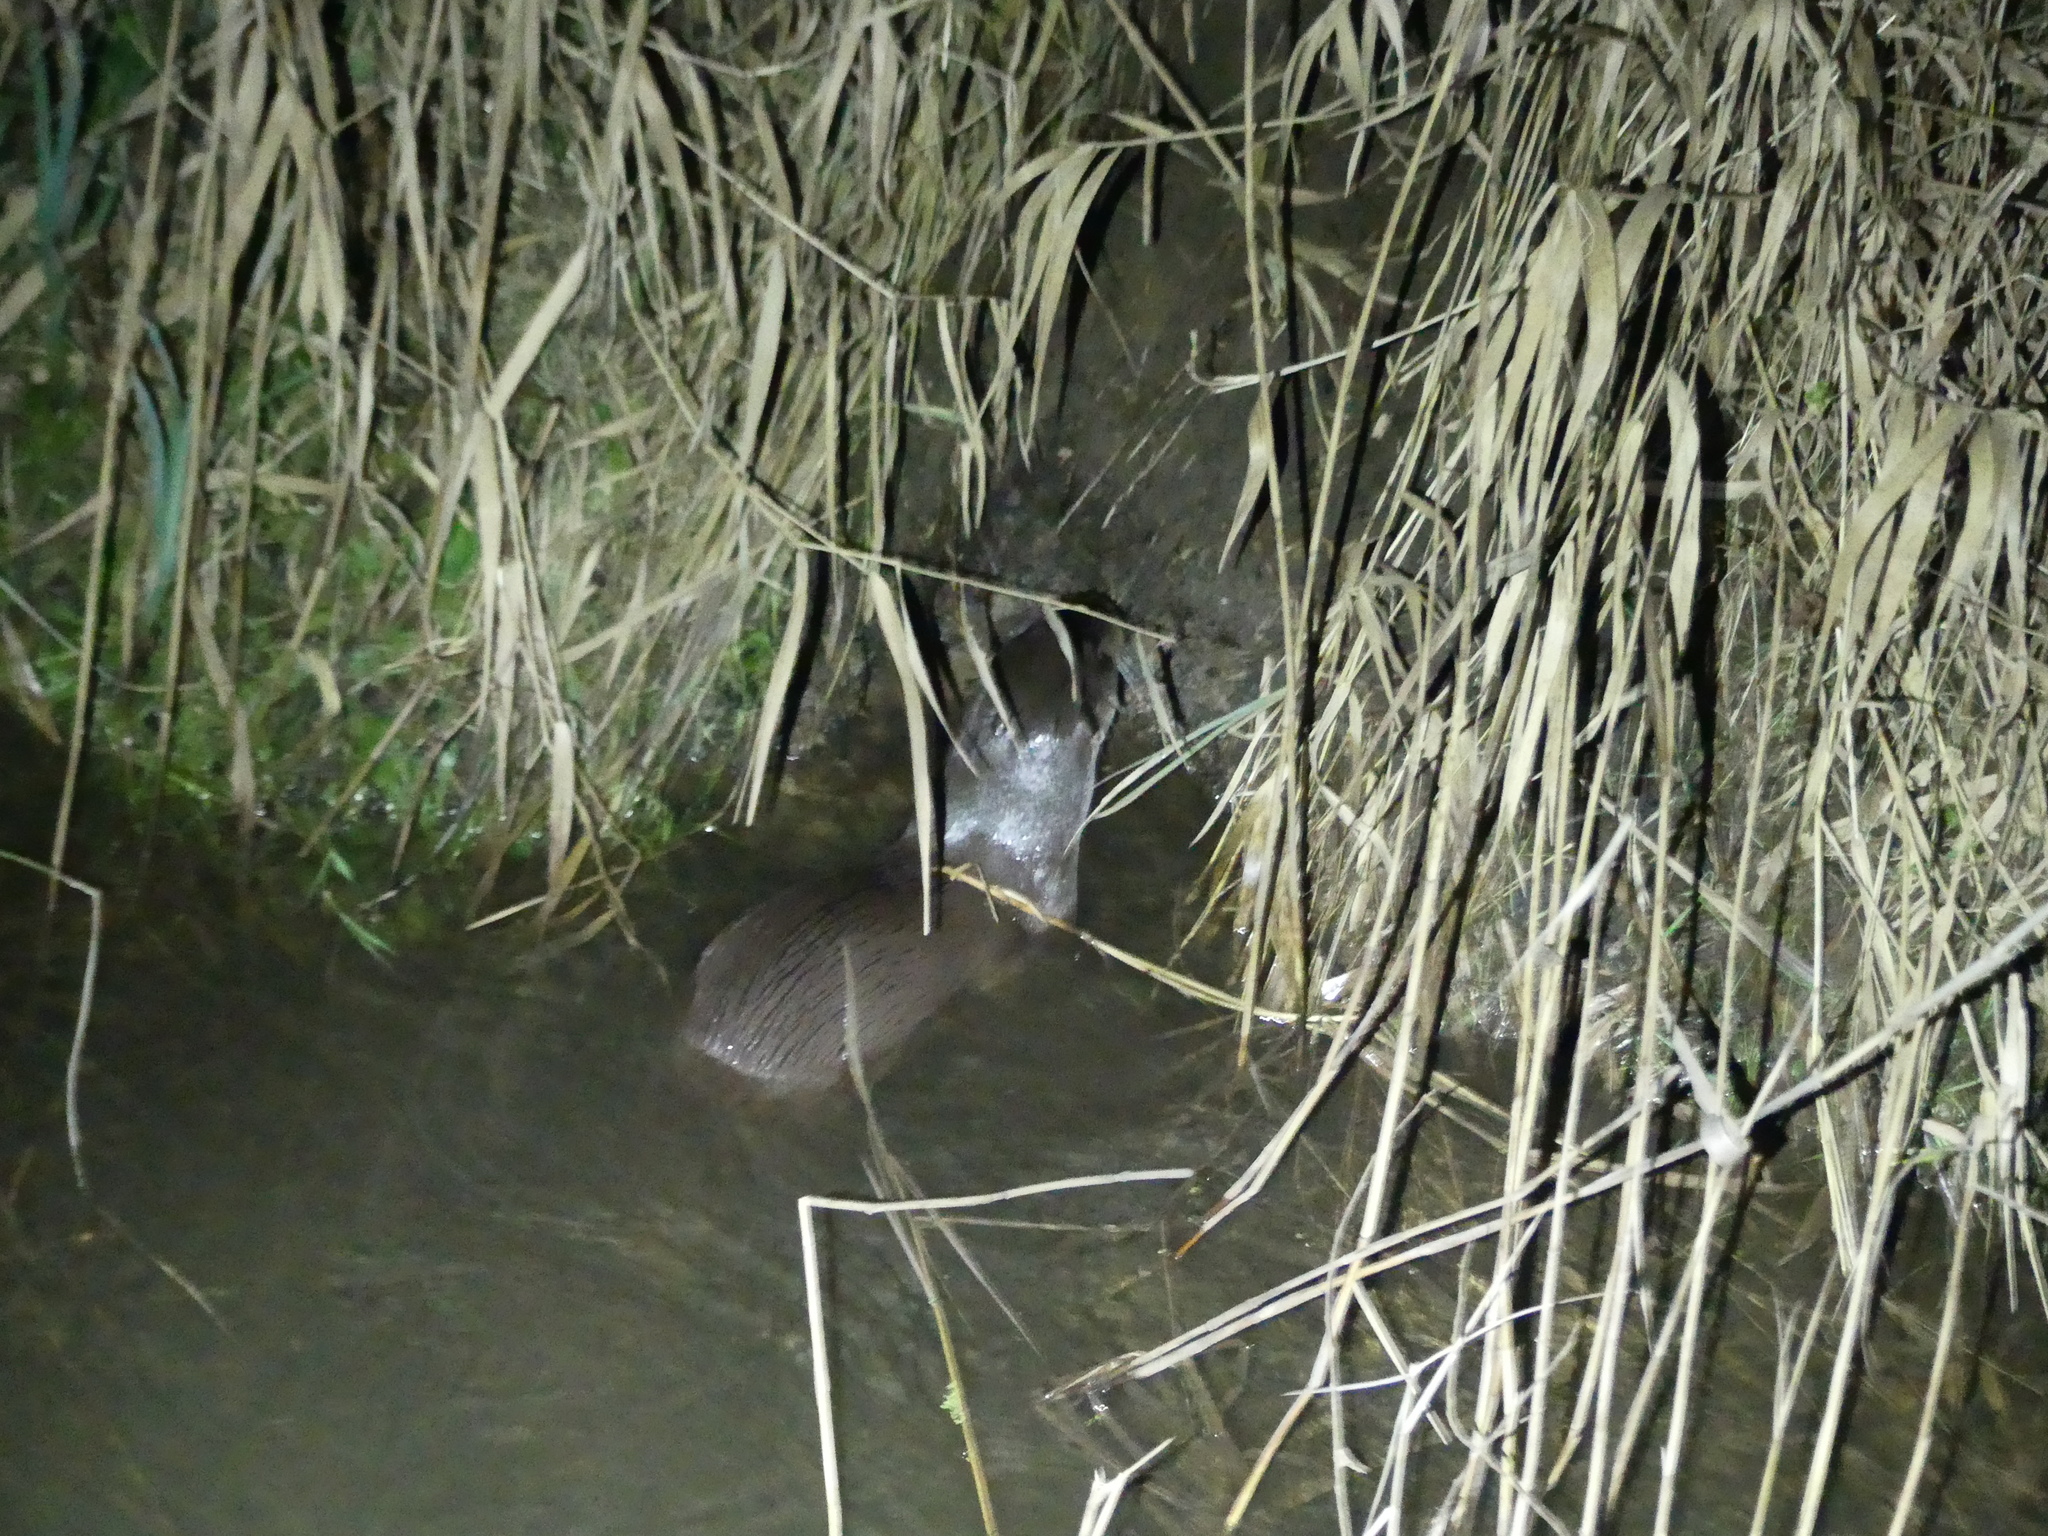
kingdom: Animalia
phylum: Chordata
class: Mammalia
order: Carnivora
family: Mustelidae
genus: Lutra
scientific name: Lutra lutra
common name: European otter
